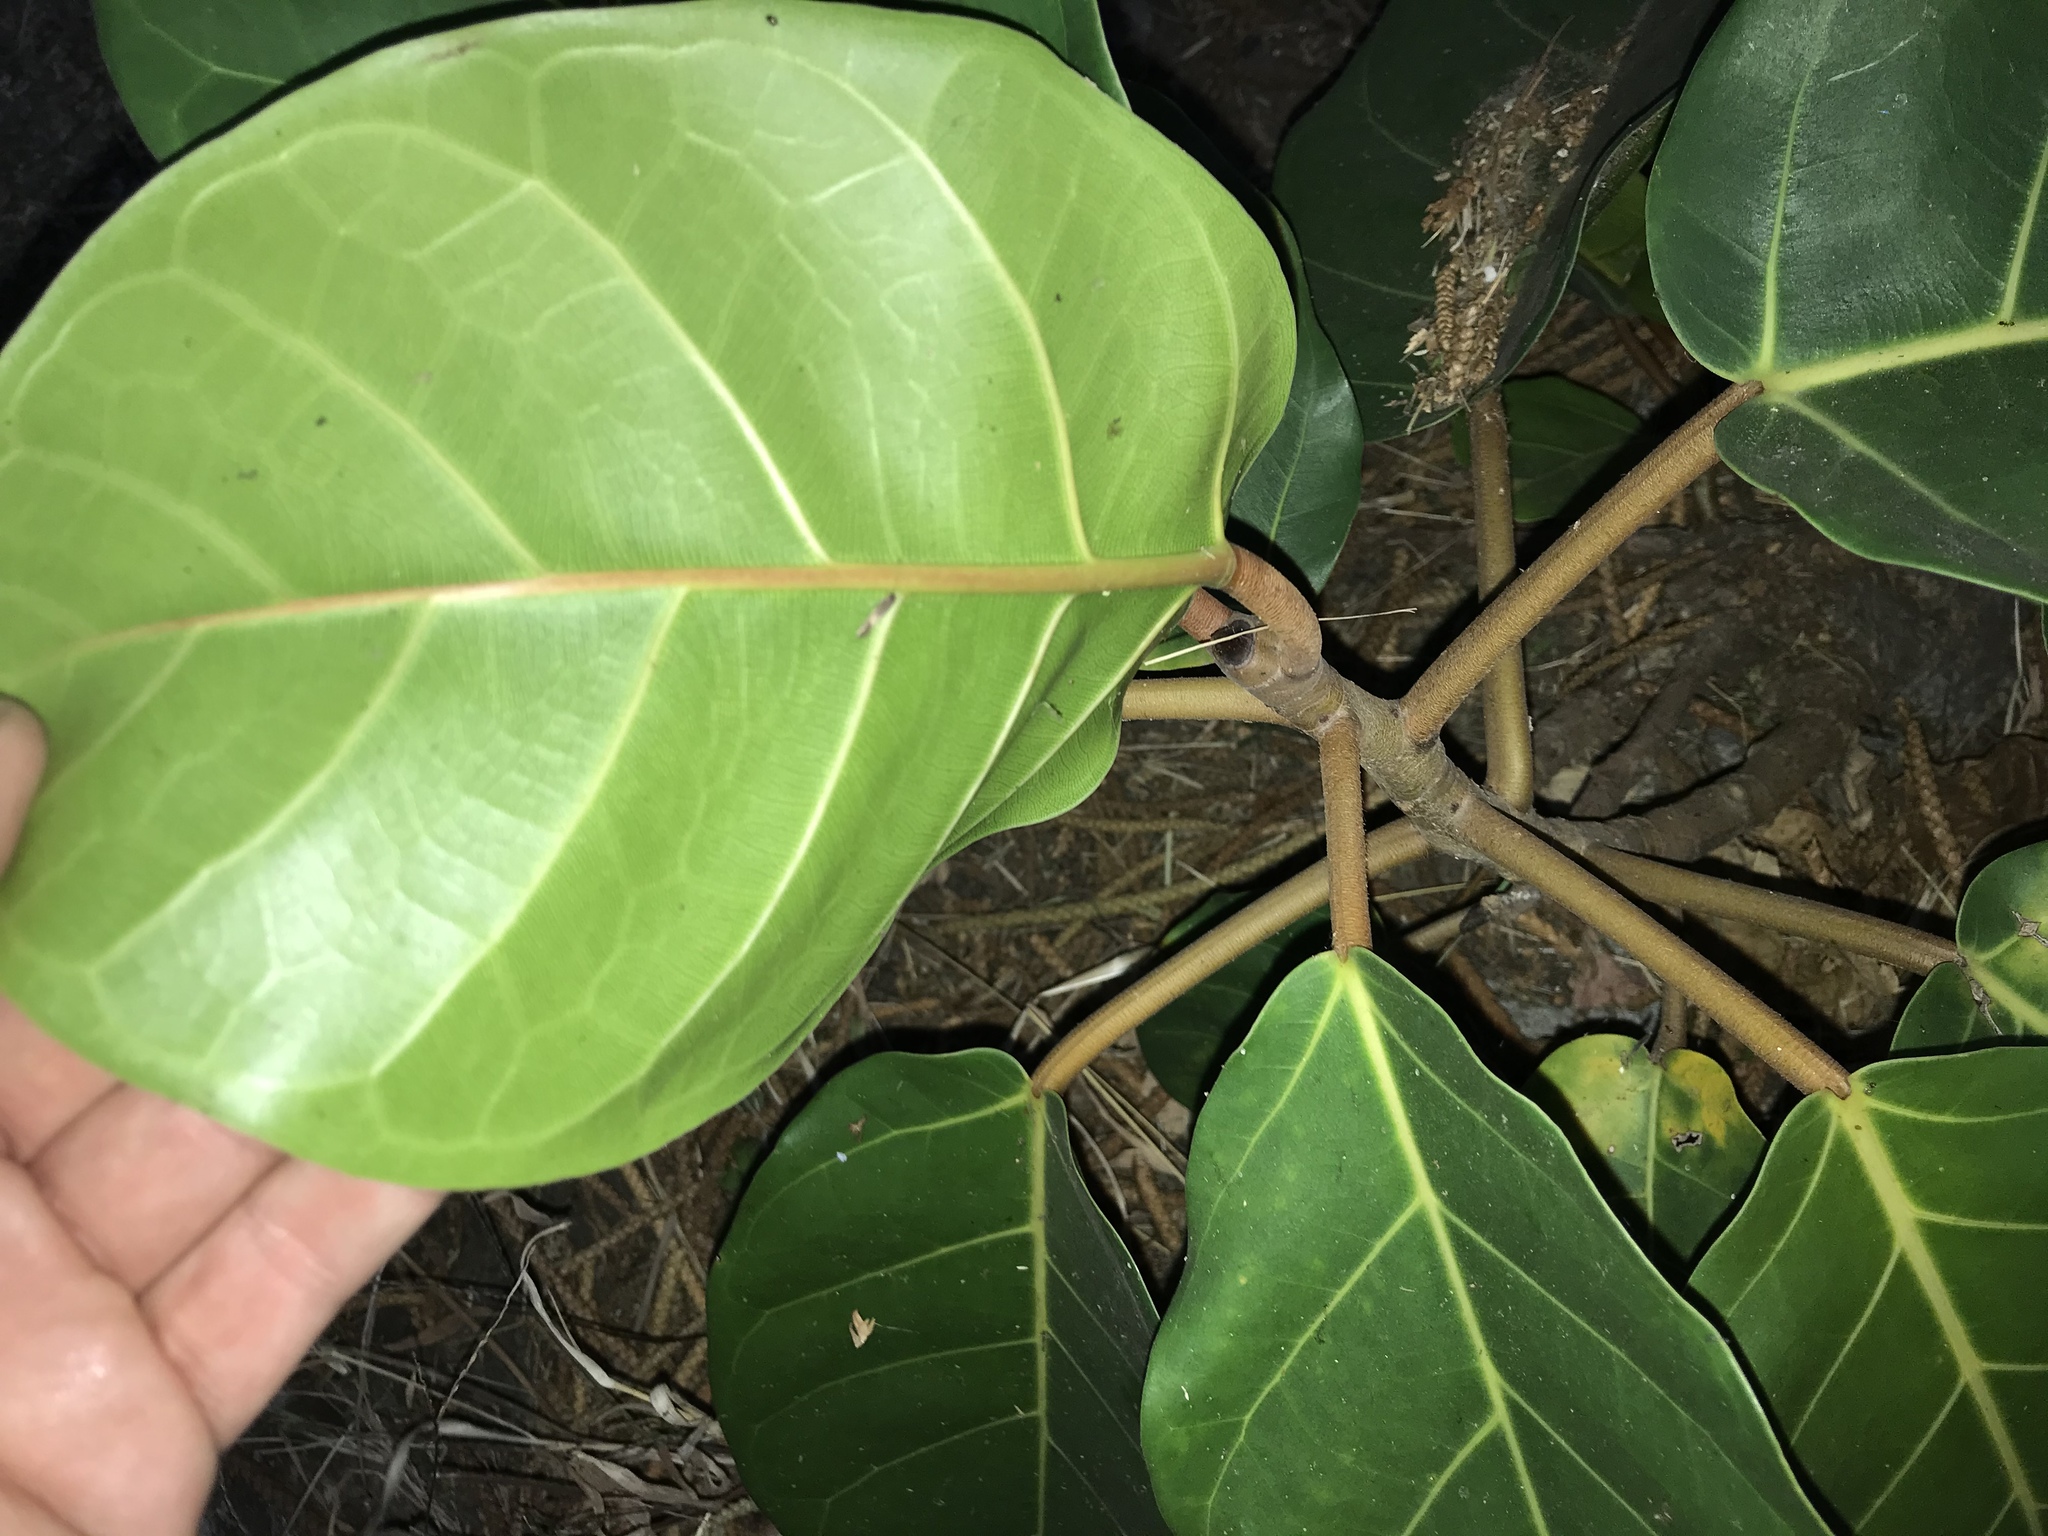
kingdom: Plantae
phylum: Tracheophyta
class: Magnoliopsida
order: Rosales
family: Moraceae
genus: Ficus
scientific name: Ficus lutea
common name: Giant-leaved fig
